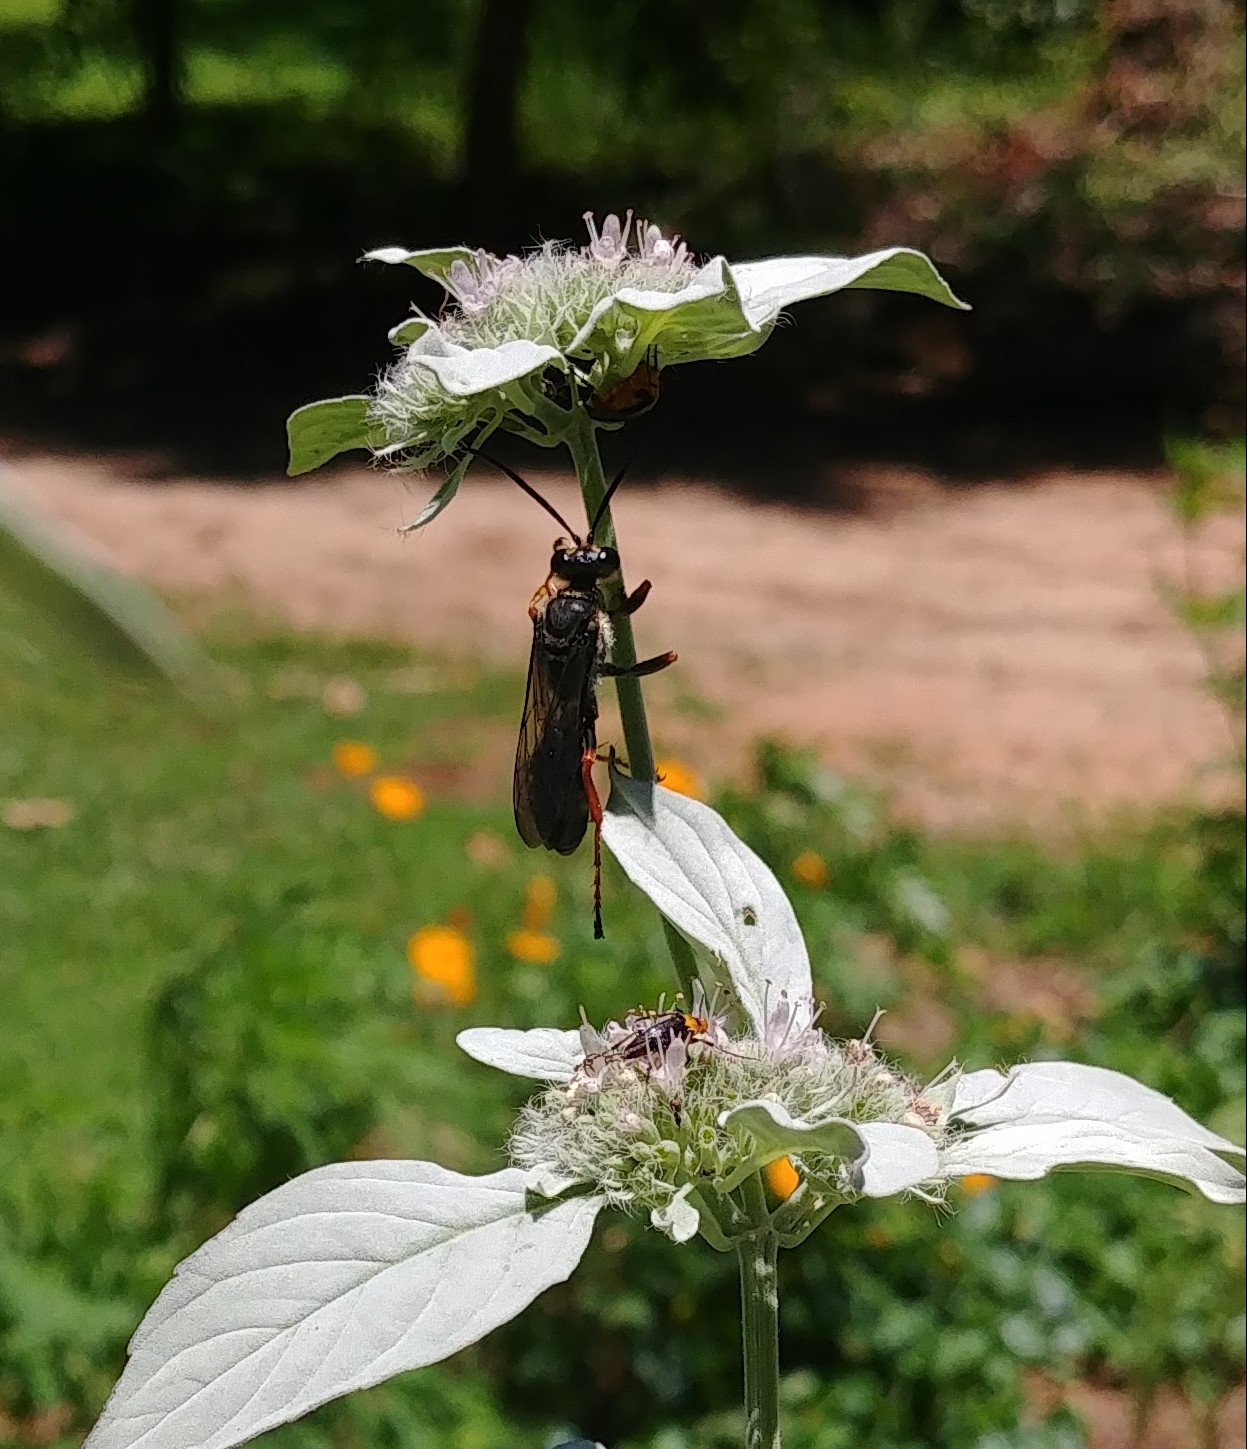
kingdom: Animalia
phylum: Arthropoda
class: Insecta
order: Hymenoptera
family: Sphecidae
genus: Sphex
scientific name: Sphex nudus
